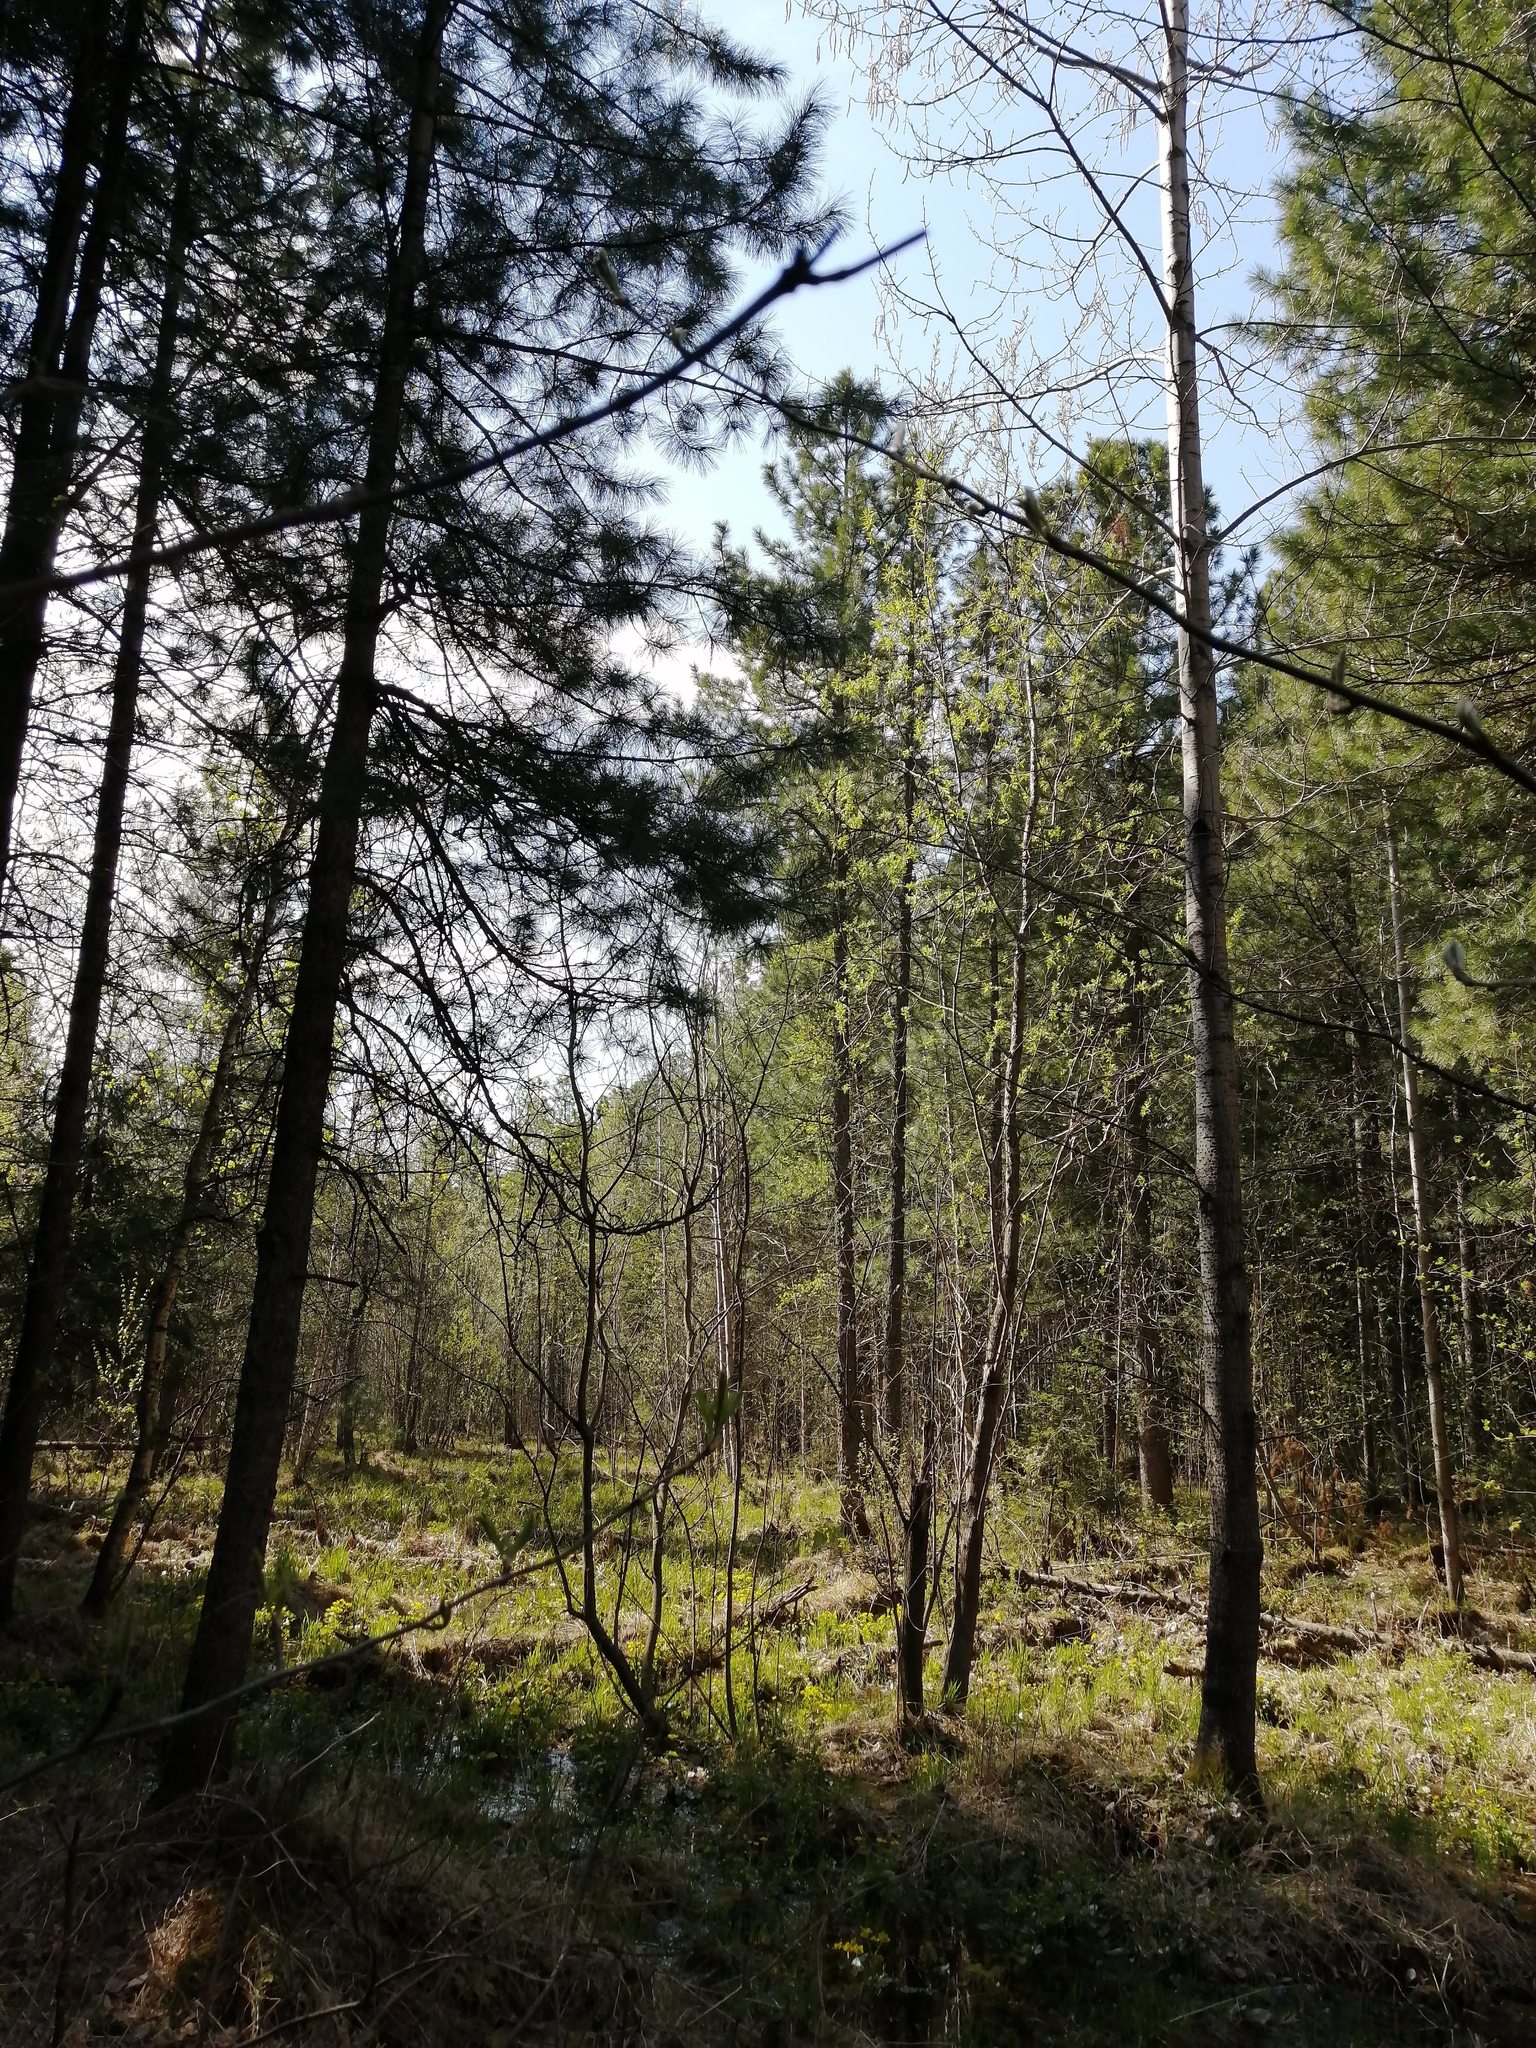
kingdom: Plantae
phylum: Tracheophyta
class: Magnoliopsida
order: Malpighiales
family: Salicaceae
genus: Populus
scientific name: Populus tremula
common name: European aspen
